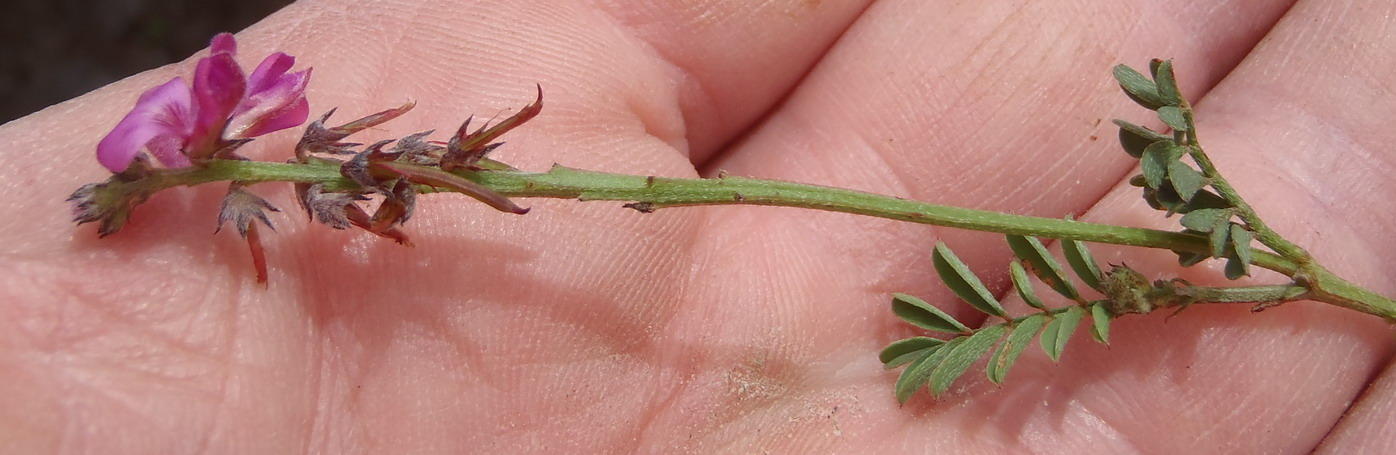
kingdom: Plantae
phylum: Tracheophyta
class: Magnoliopsida
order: Fabales
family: Fabaceae
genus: Indigofera
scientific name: Indigofera declinata
